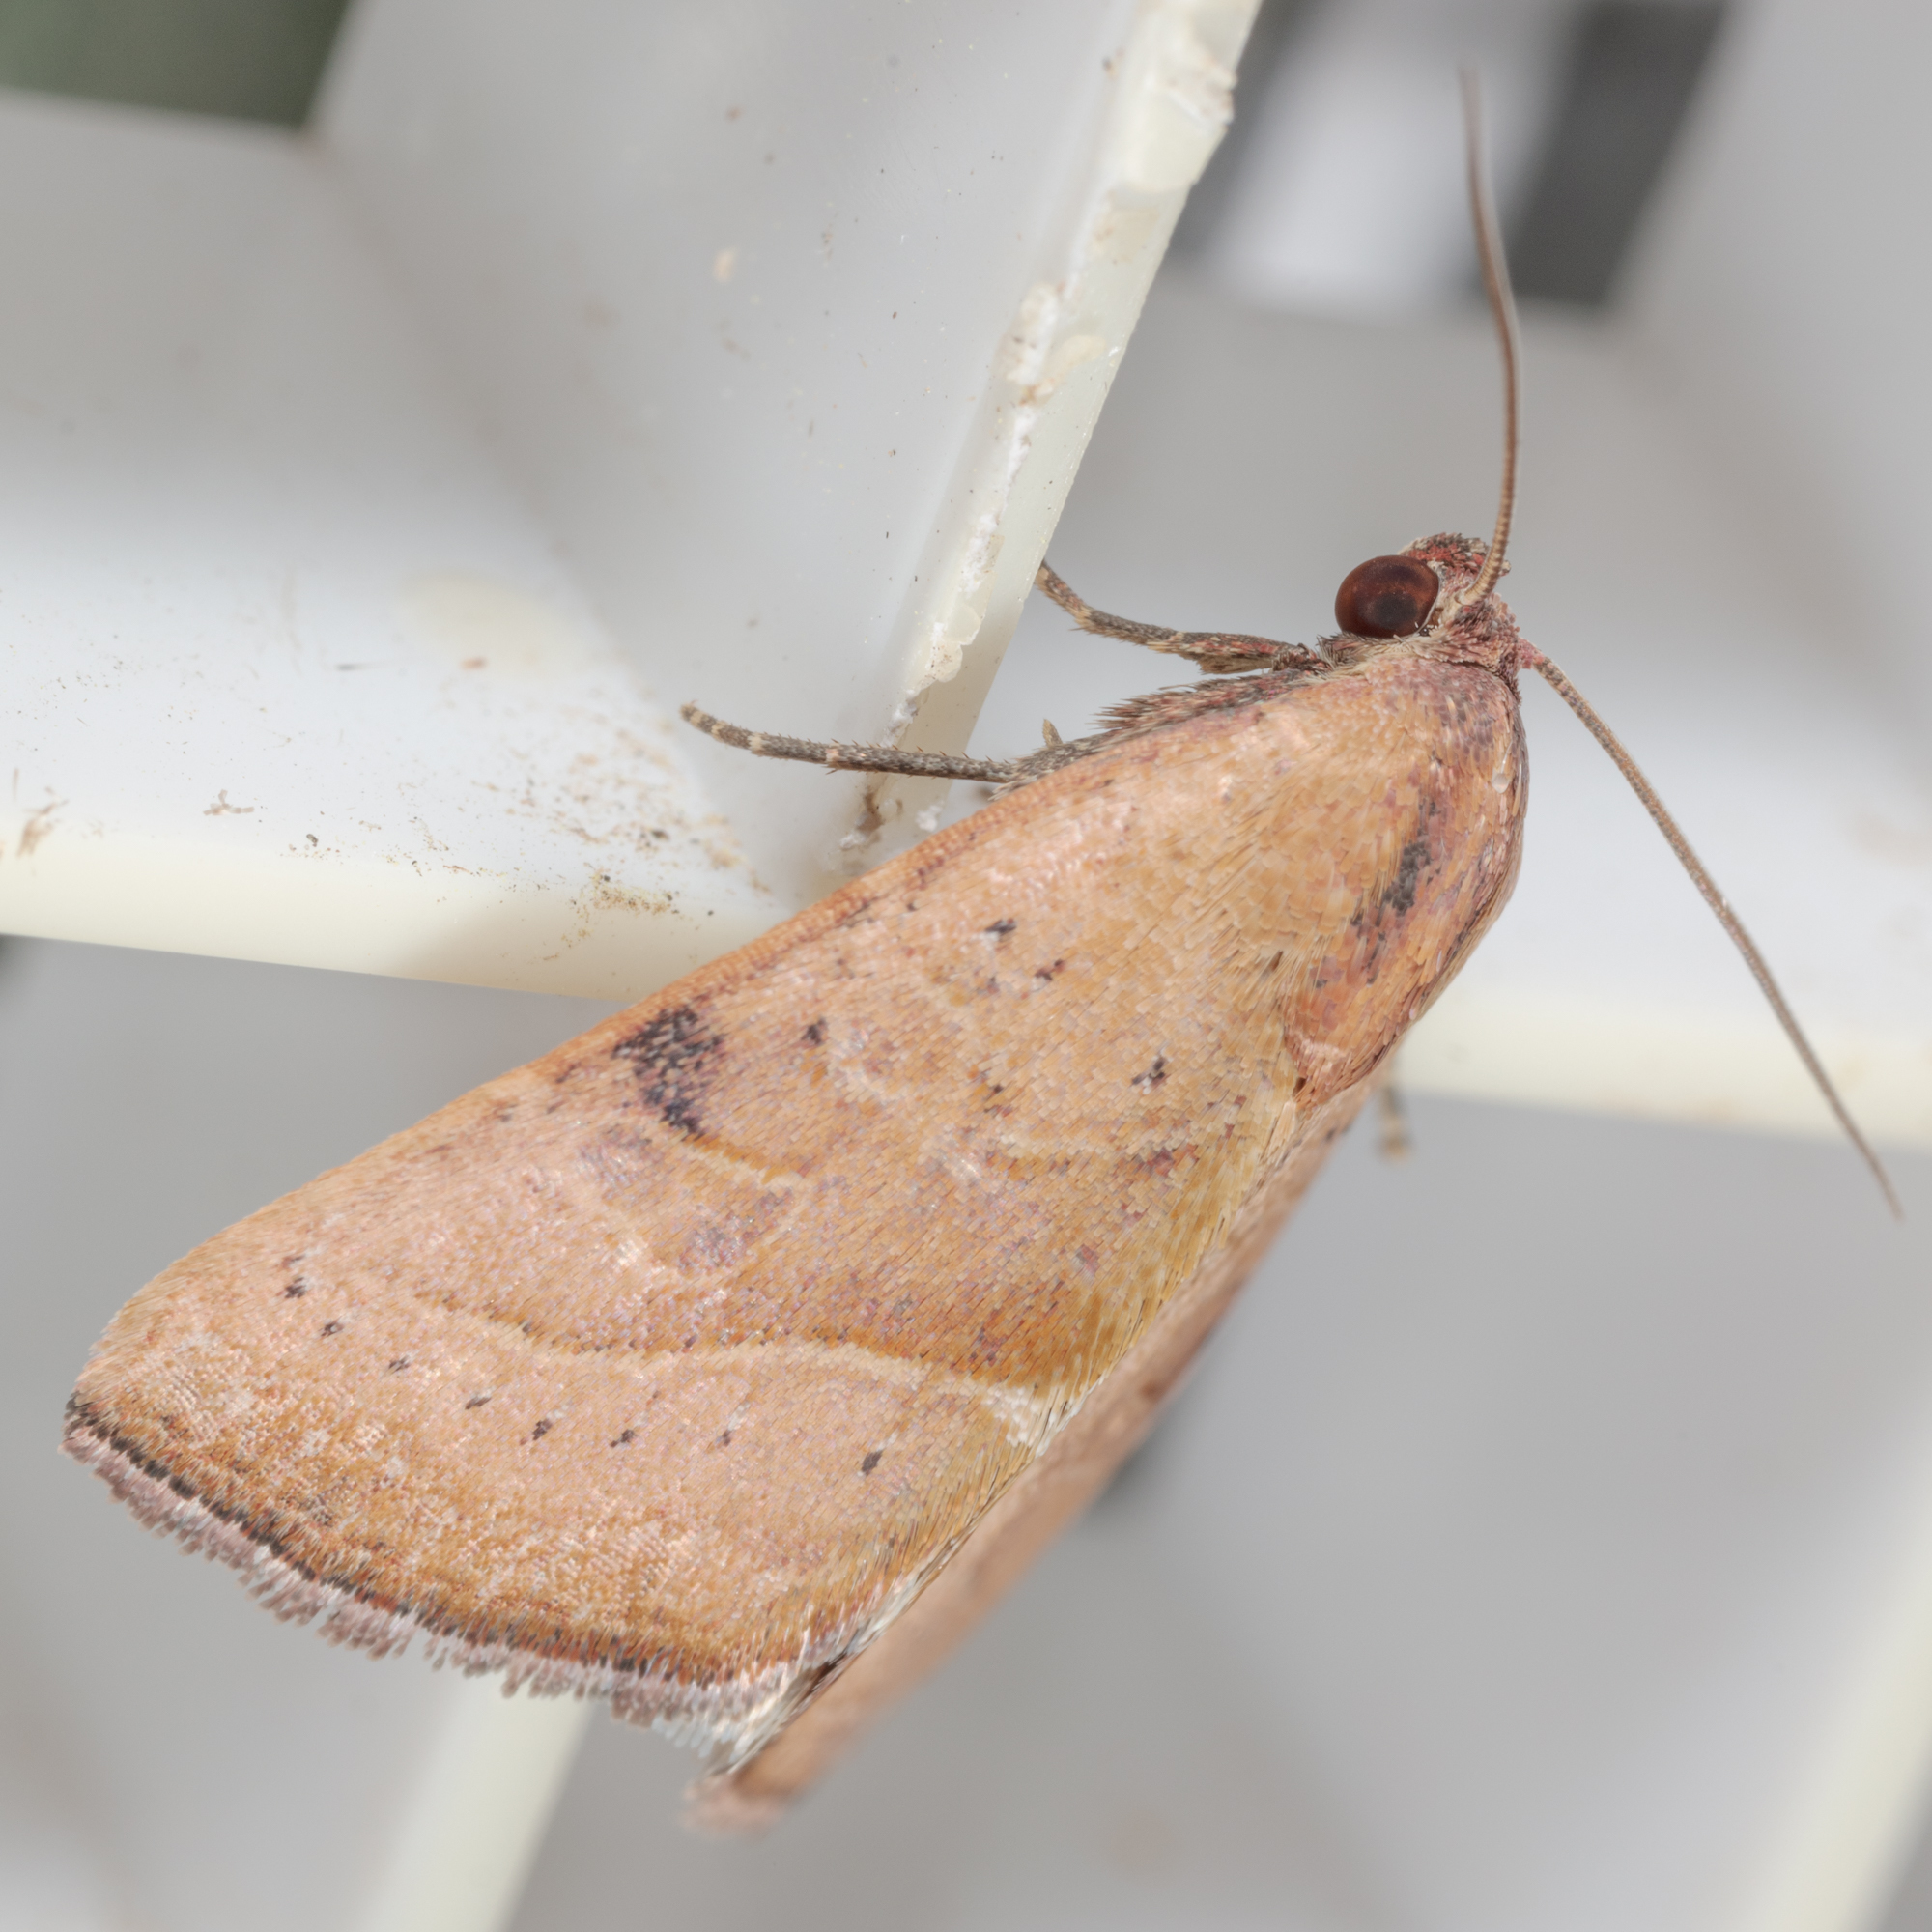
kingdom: Animalia
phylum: Arthropoda
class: Insecta
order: Lepidoptera
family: Noctuidae
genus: Galgula
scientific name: Galgula partita
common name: Wedgeling
